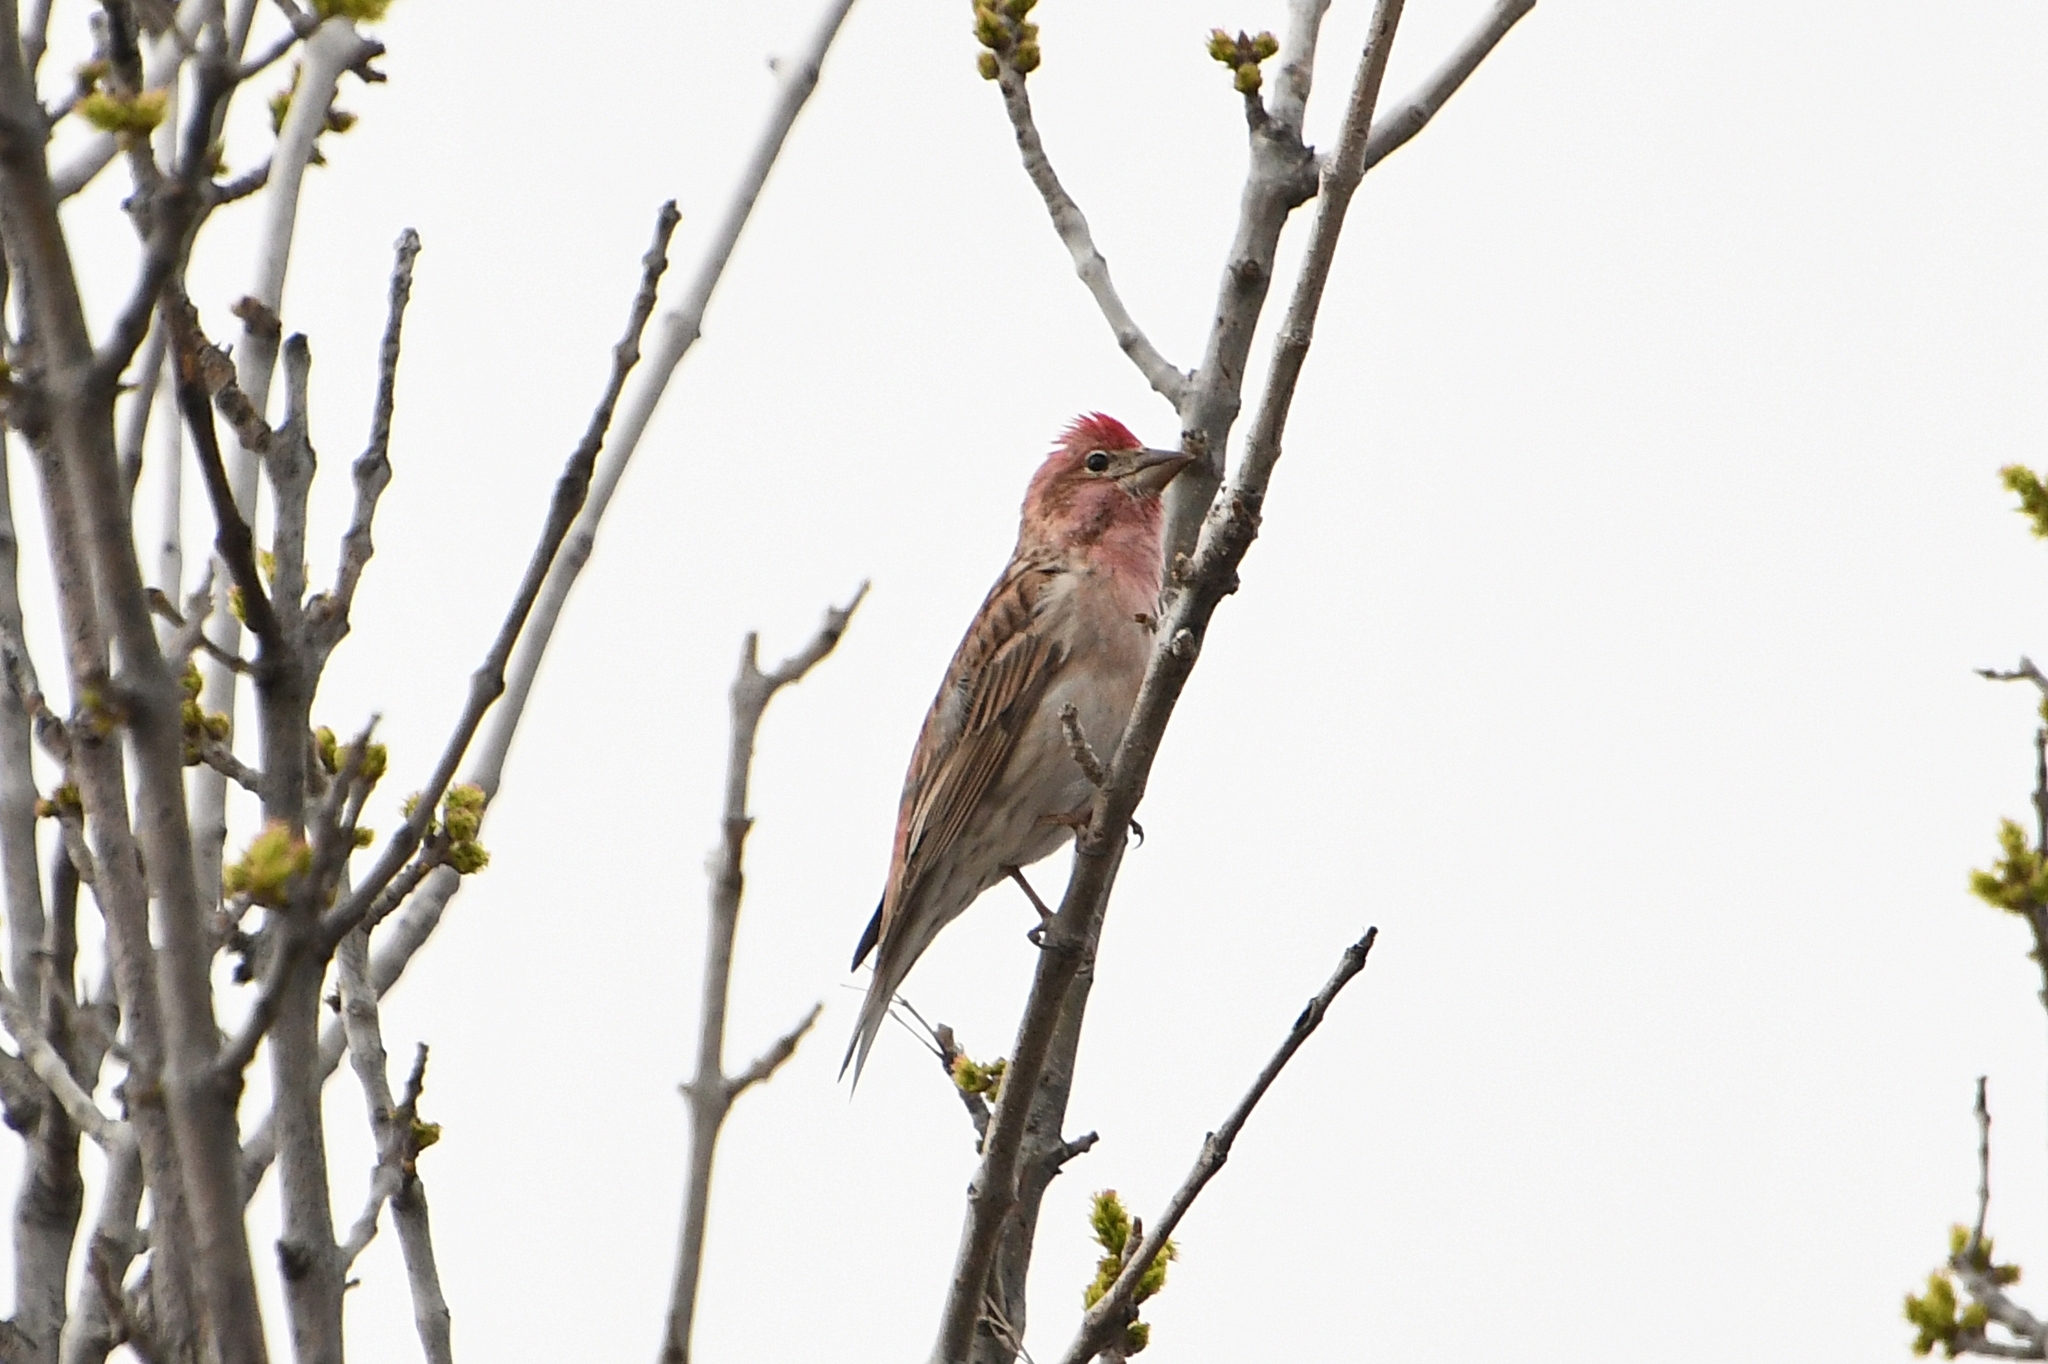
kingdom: Animalia
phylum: Chordata
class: Aves
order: Passeriformes
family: Fringillidae
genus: Haemorhous
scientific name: Haemorhous cassinii
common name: Cassin's finch
